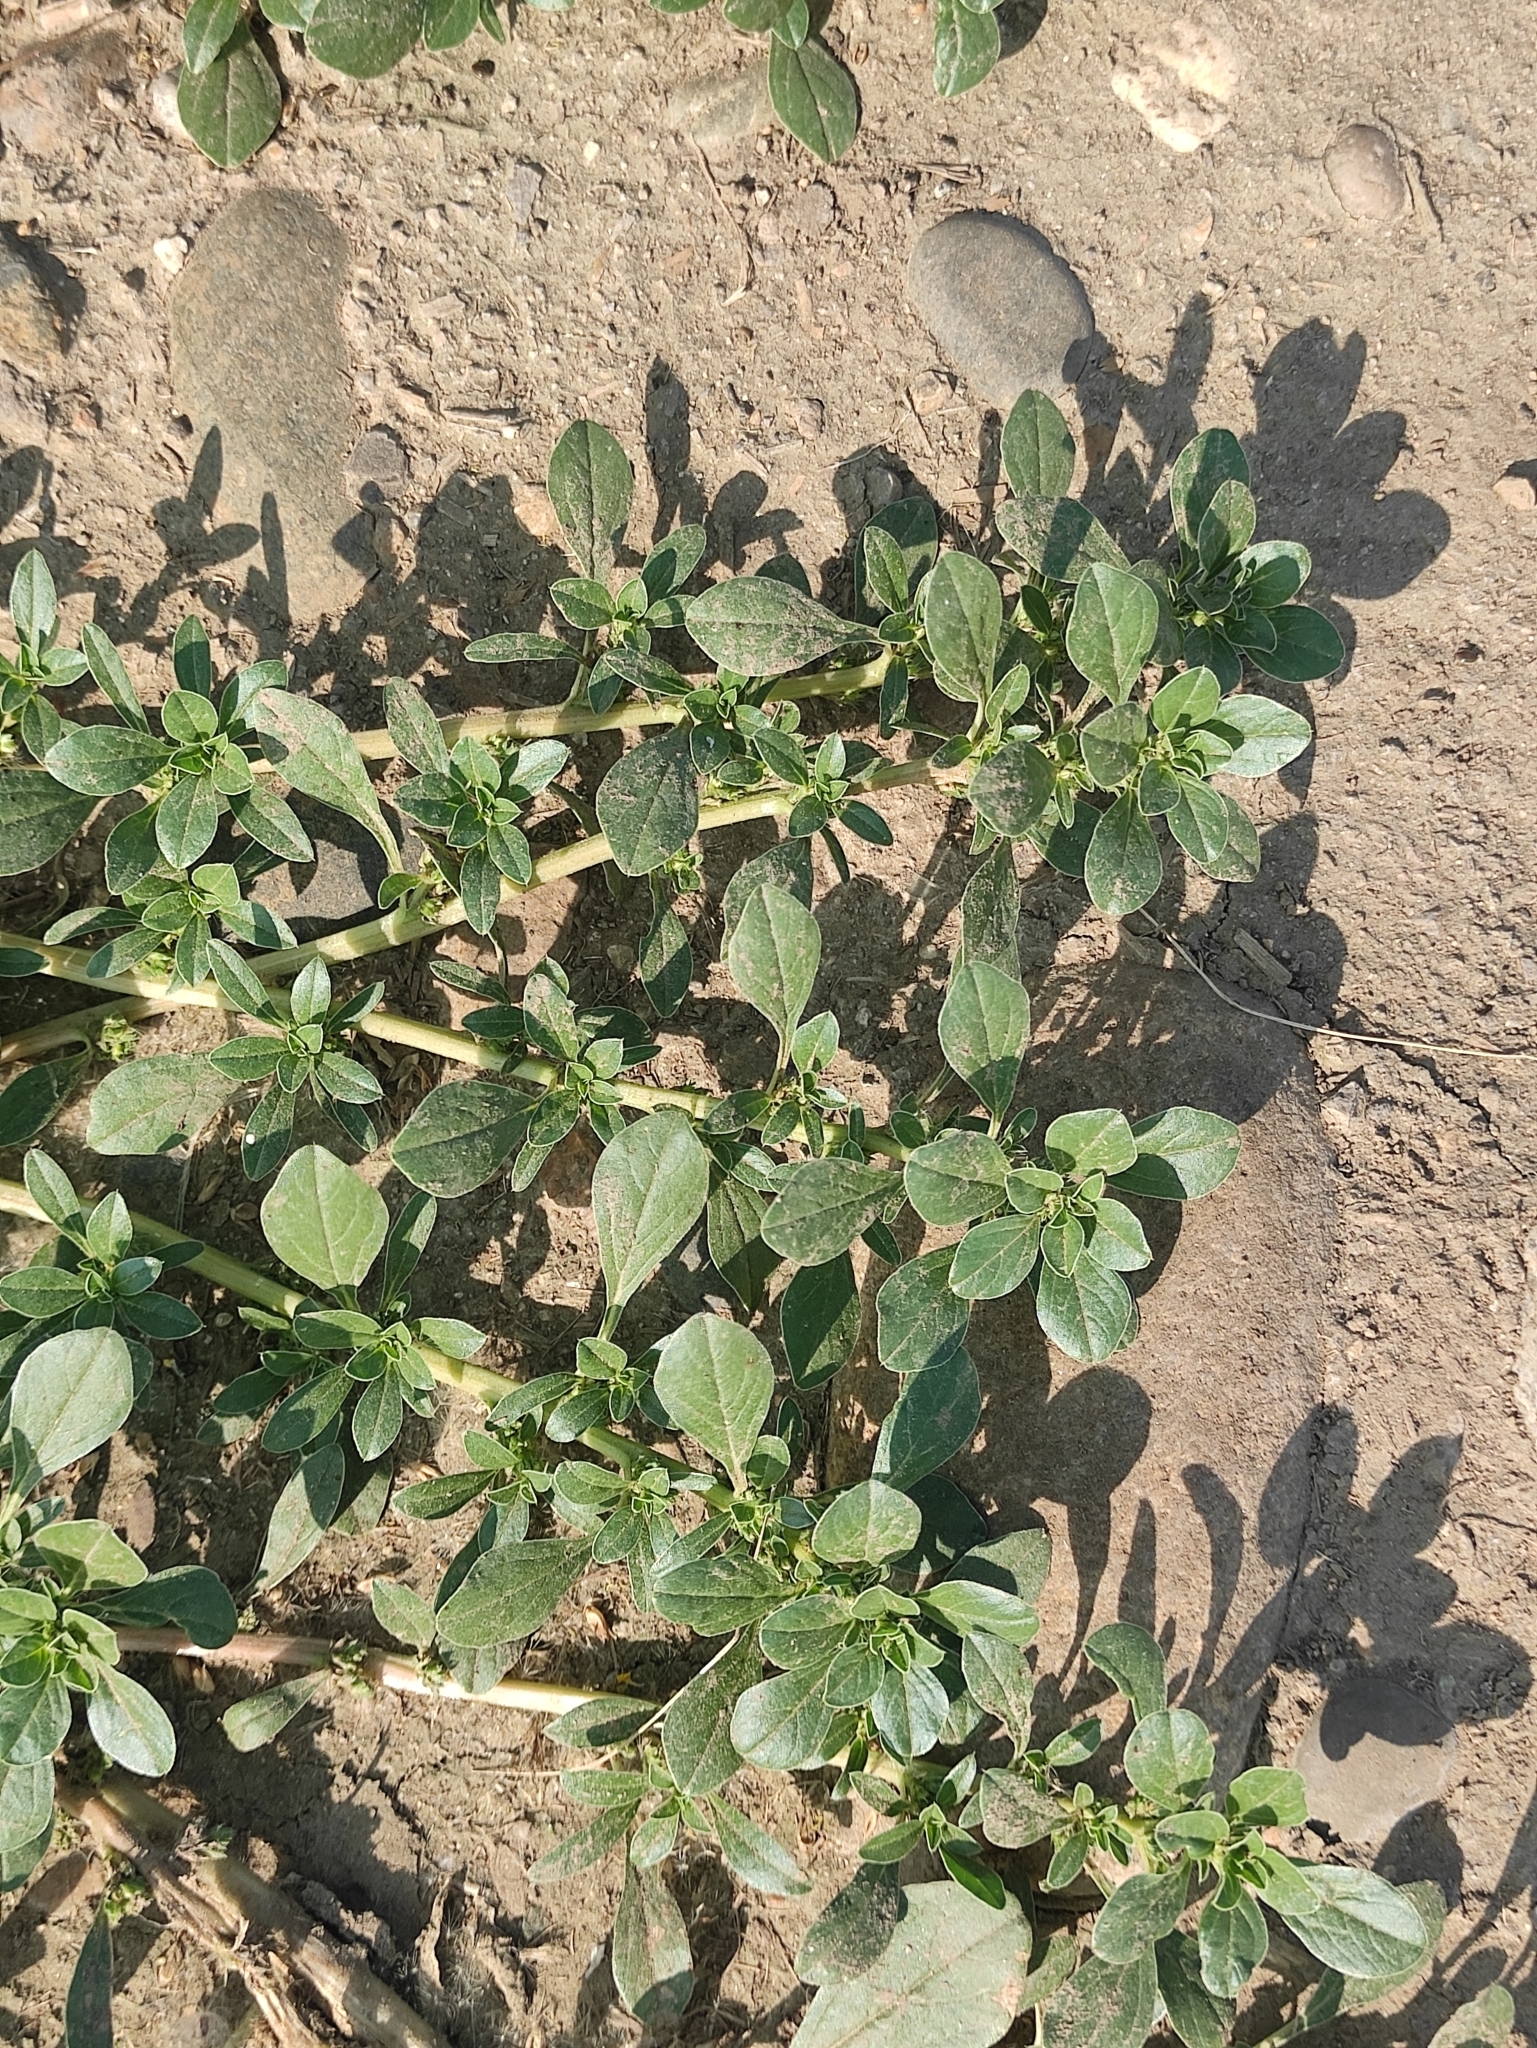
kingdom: Plantae
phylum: Tracheophyta
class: Magnoliopsida
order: Caryophyllales
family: Amaranthaceae
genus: Amaranthus
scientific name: Amaranthus blitoides
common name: Prostrate pigweed
